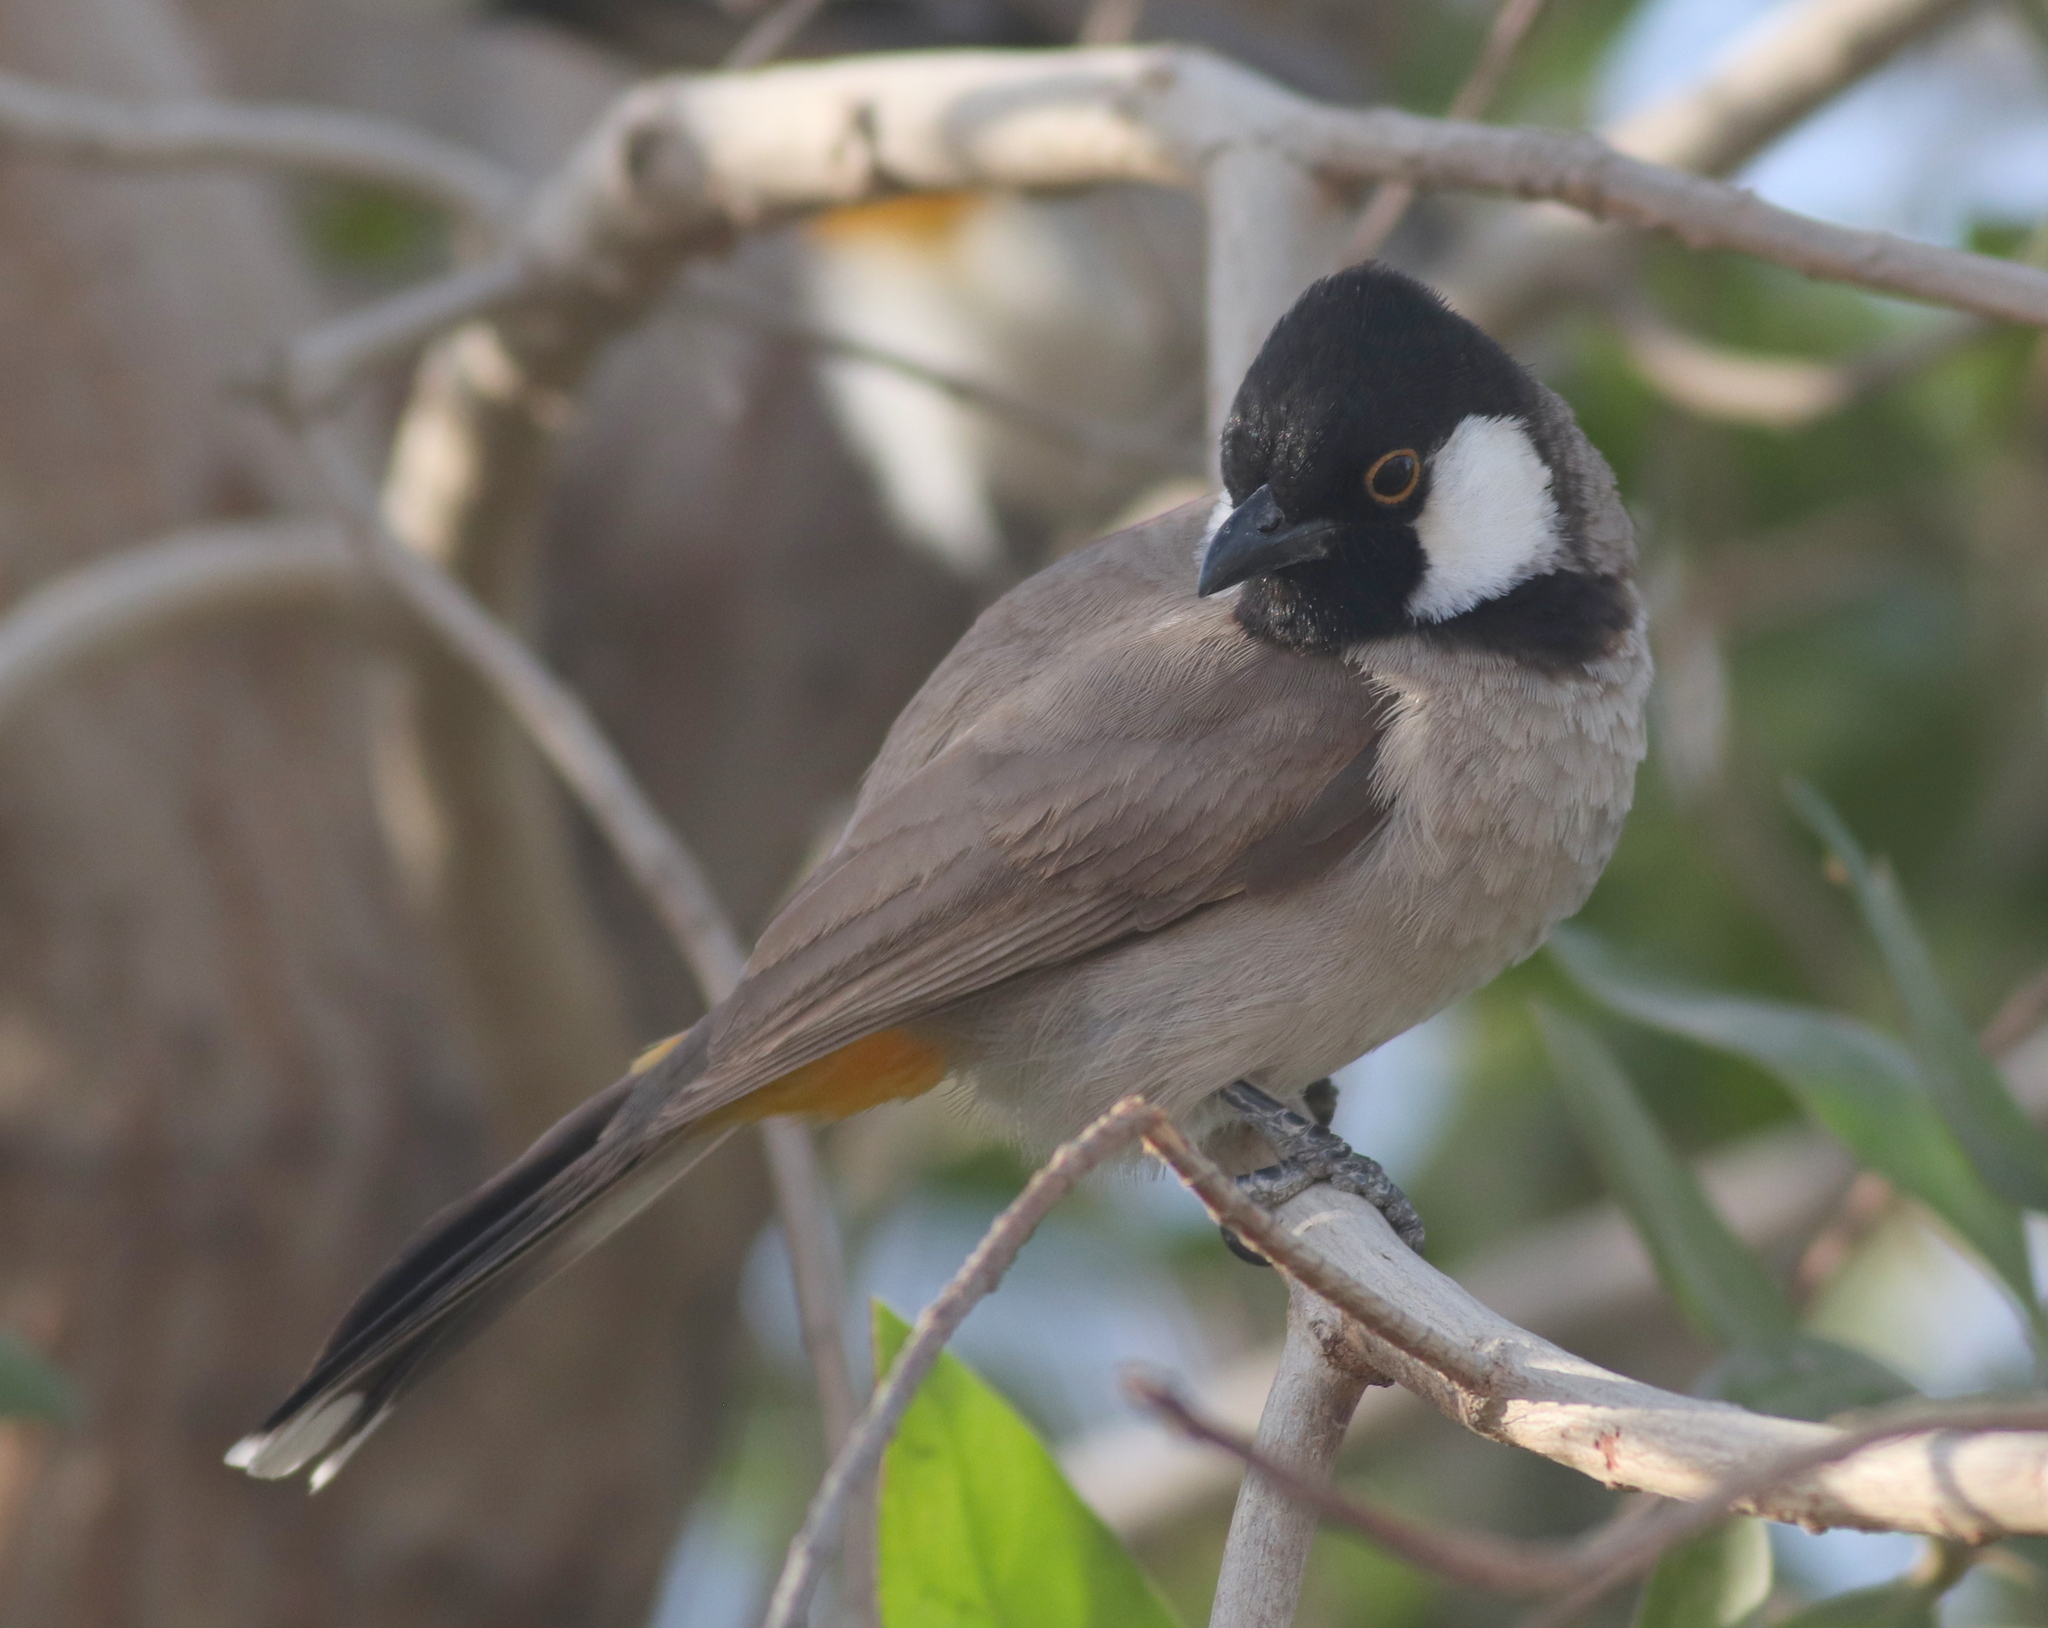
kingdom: Animalia
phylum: Chordata
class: Aves
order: Passeriformes
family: Pycnonotidae
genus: Pycnonotus
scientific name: Pycnonotus leucotis
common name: White-eared bulbul
